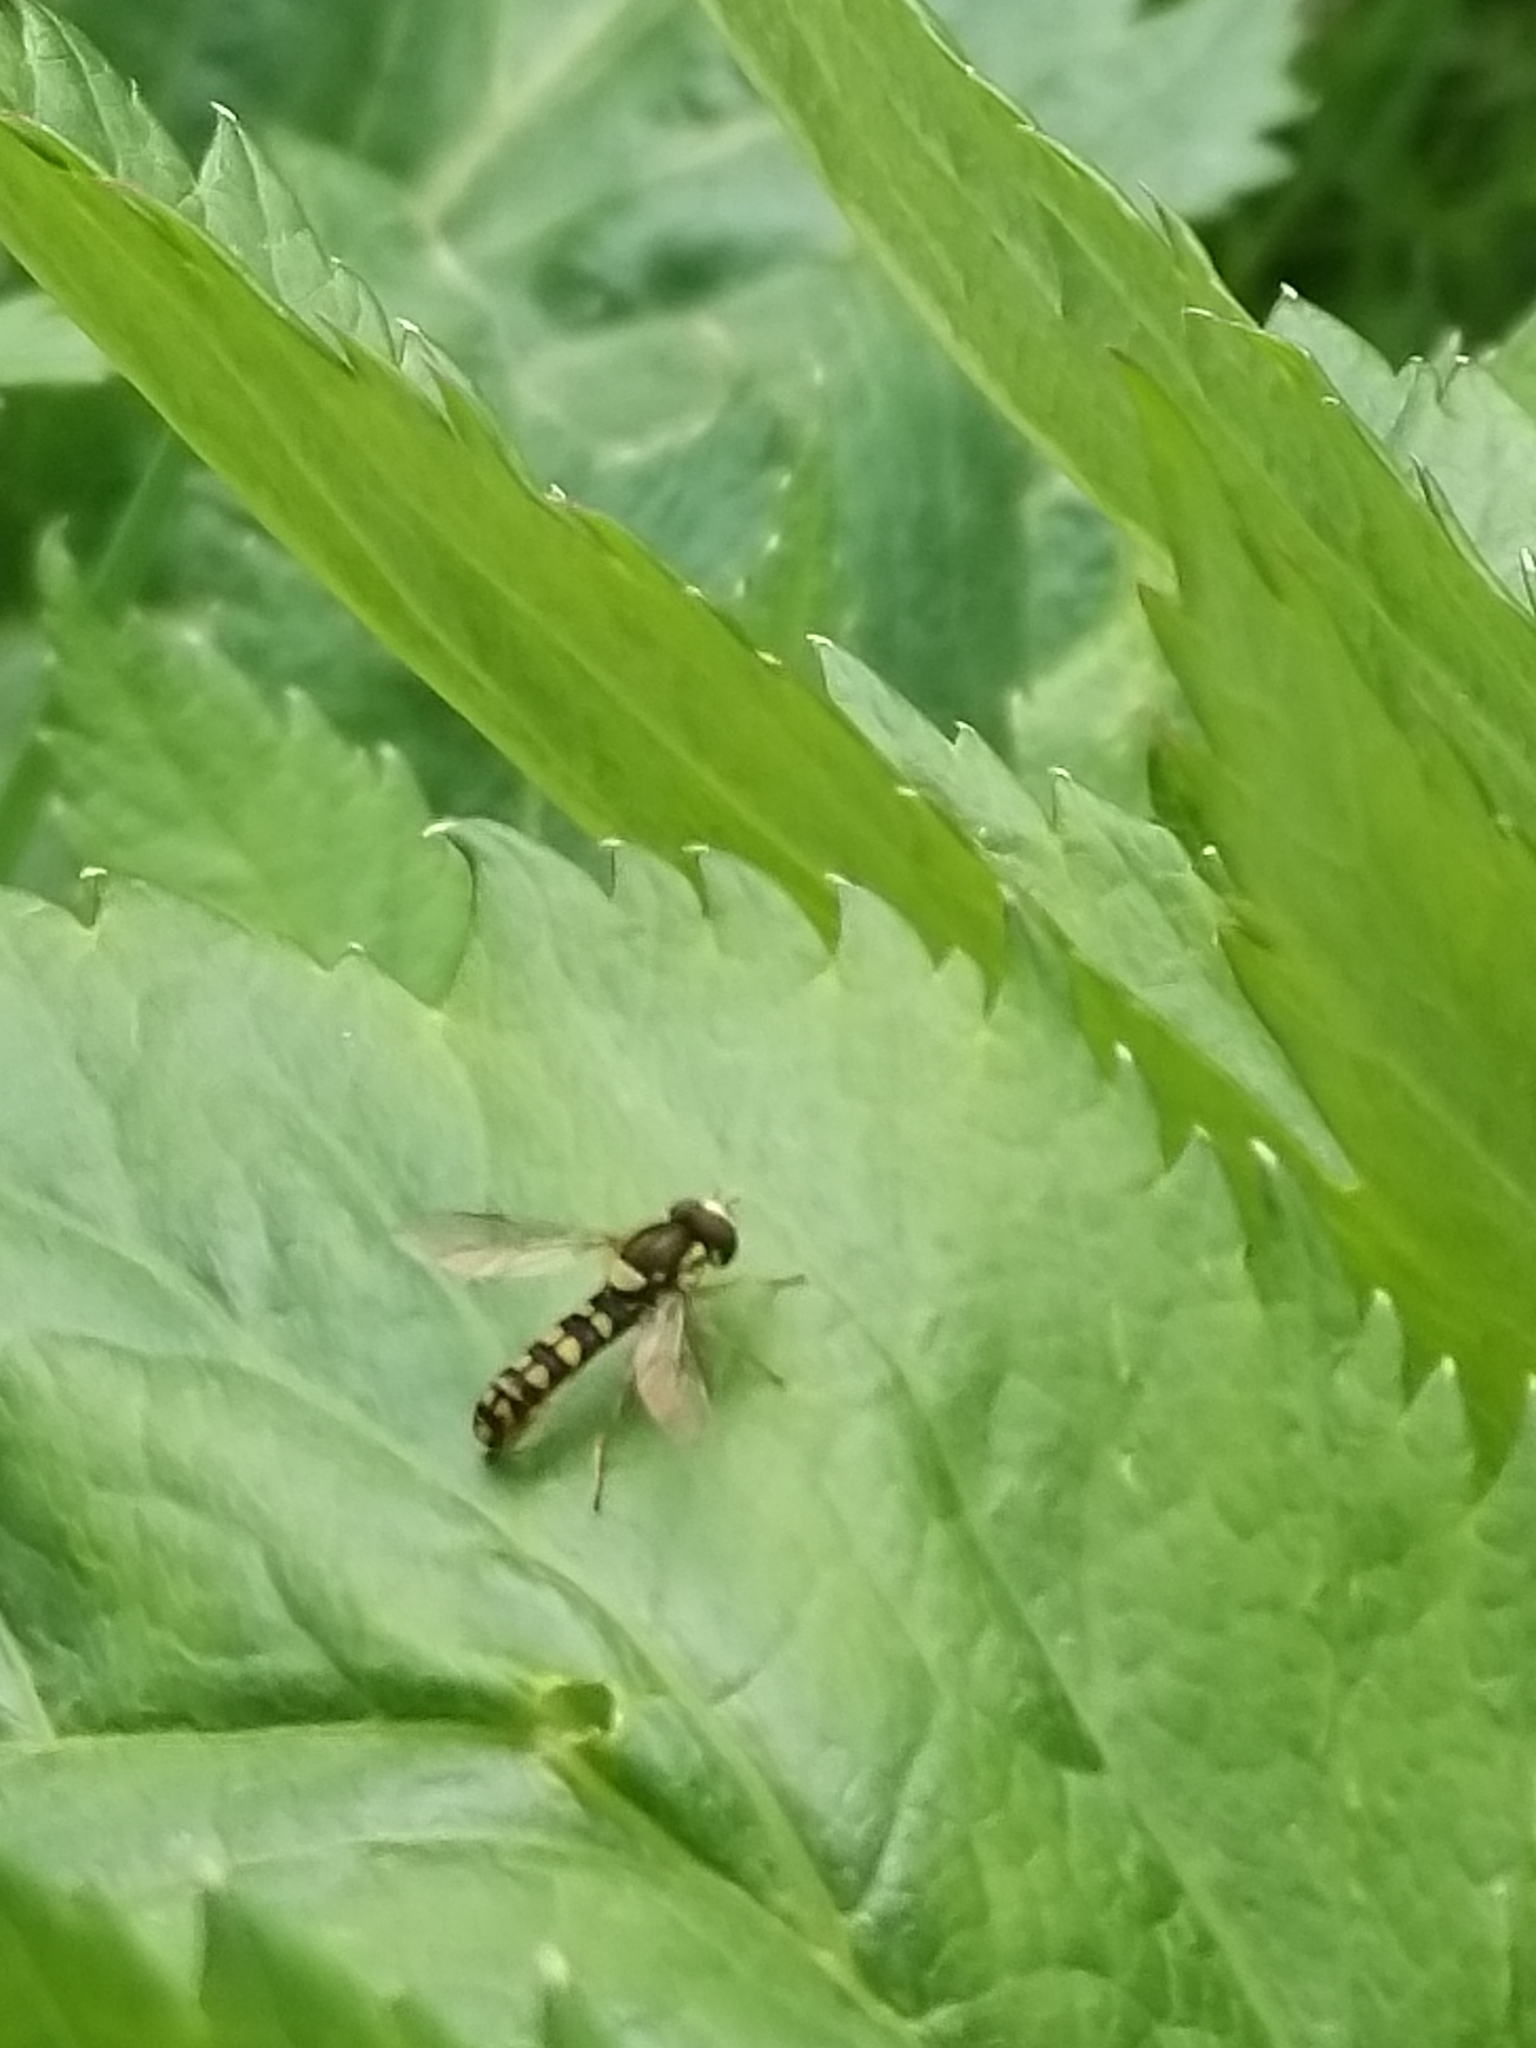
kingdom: Animalia
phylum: Arthropoda
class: Insecta
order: Diptera
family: Syrphidae
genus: Sphaerophoria
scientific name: Sphaerophoria
